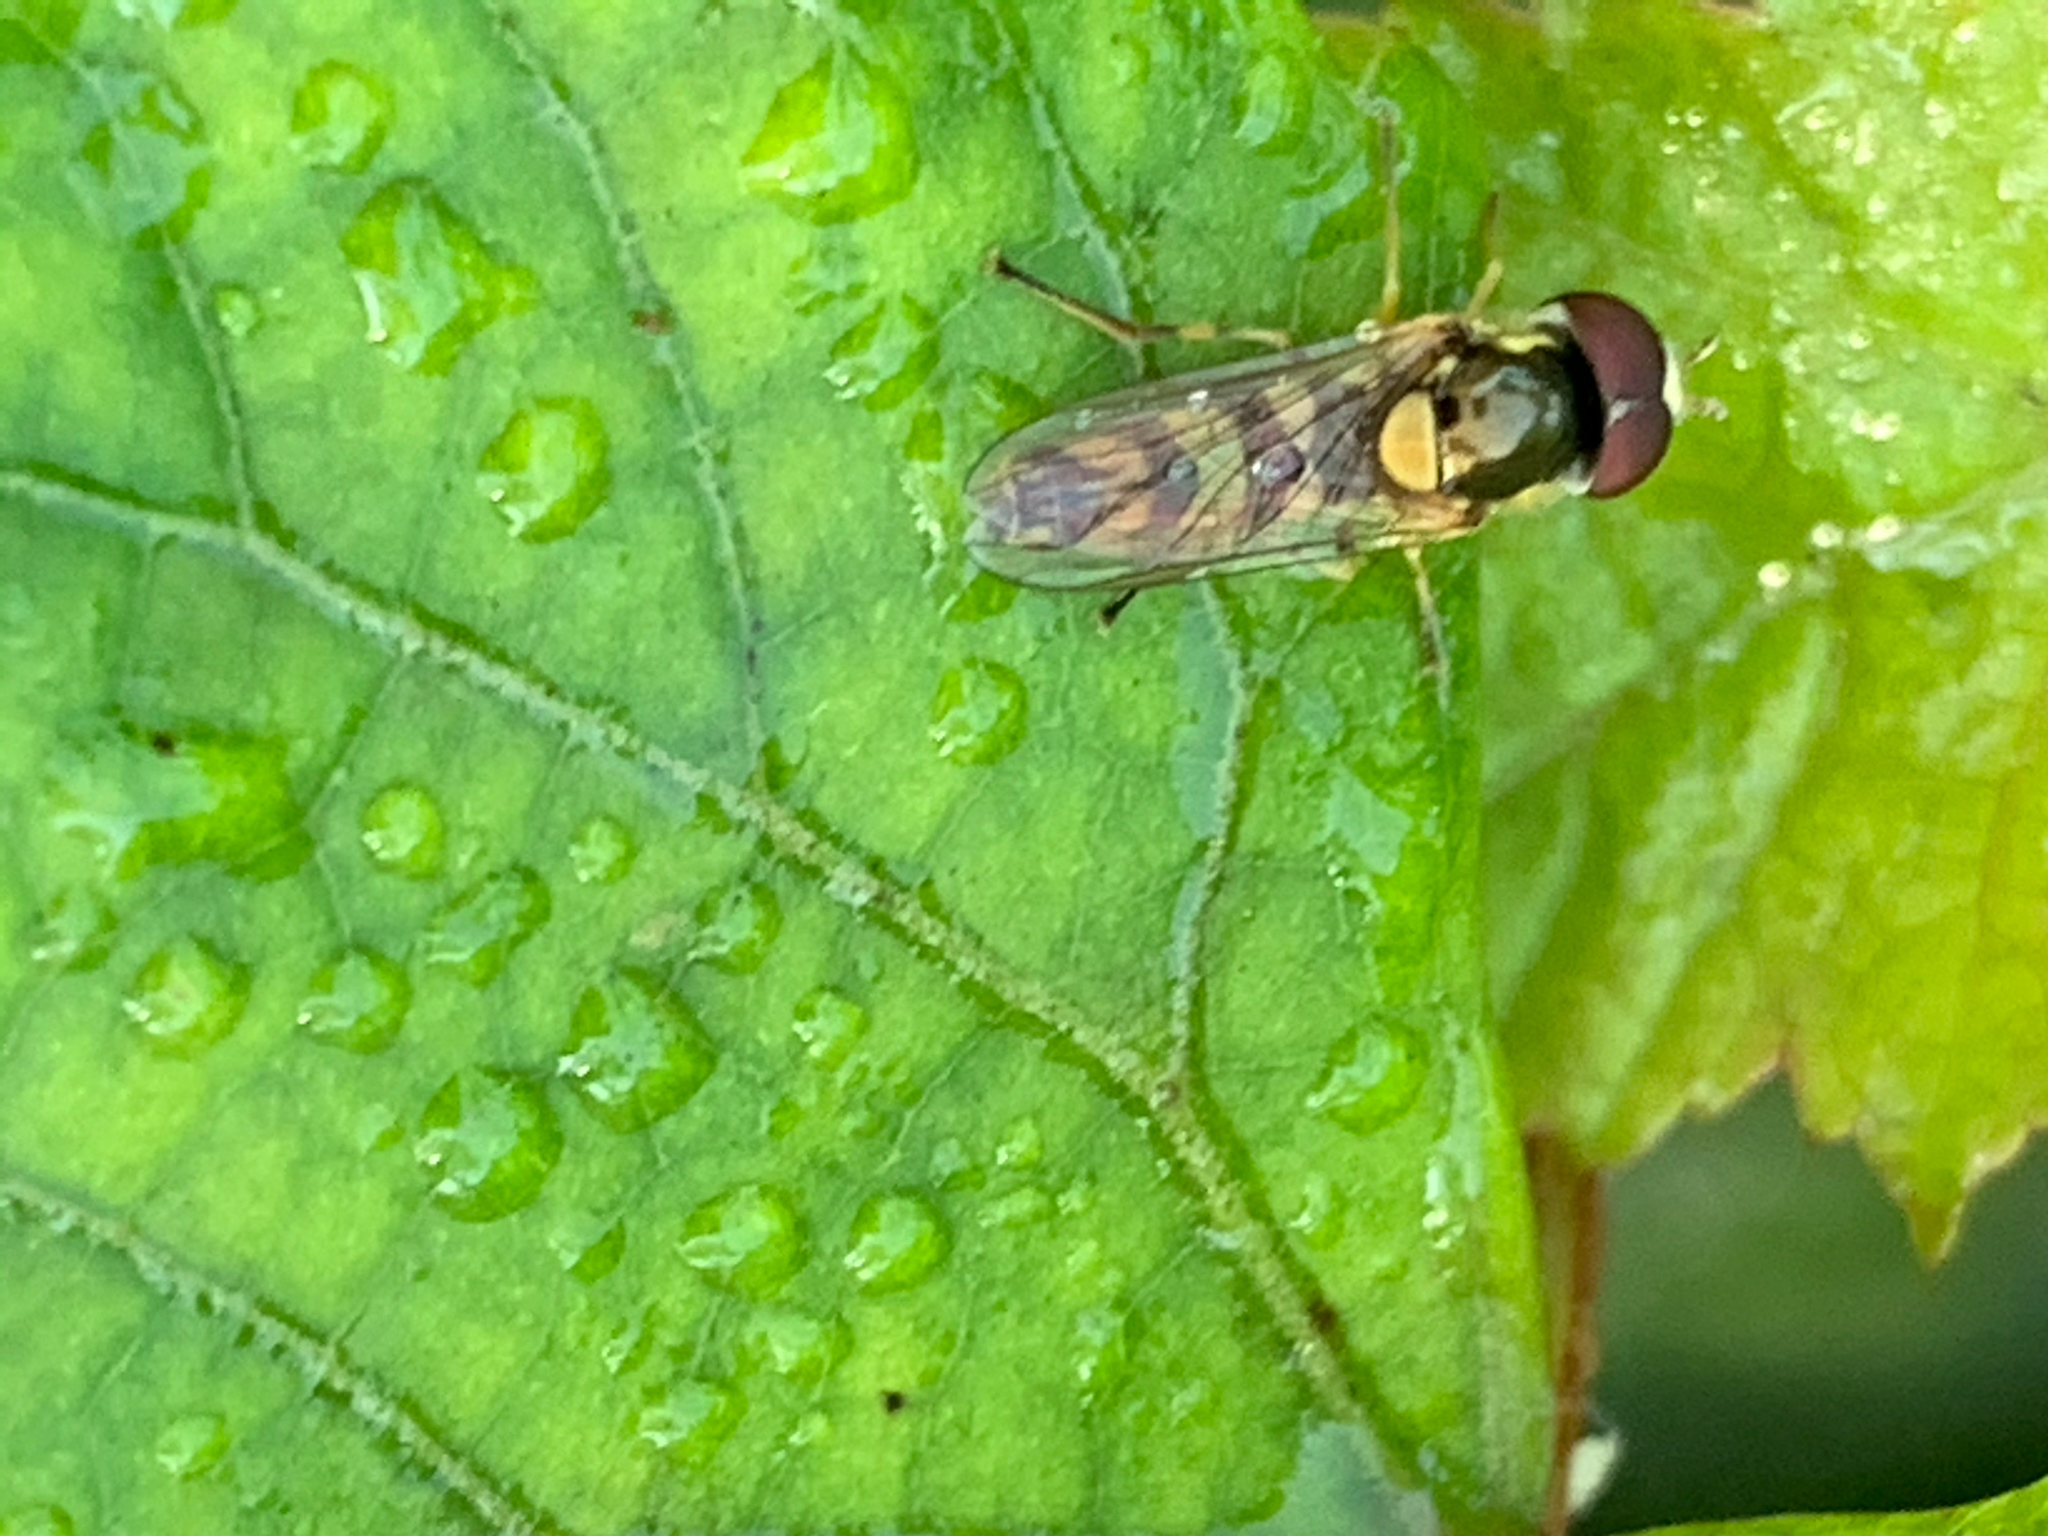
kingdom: Animalia
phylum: Arthropoda
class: Insecta
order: Diptera
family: Syrphidae
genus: Allograpta
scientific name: Allograpta exotica
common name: Syrphid fly
